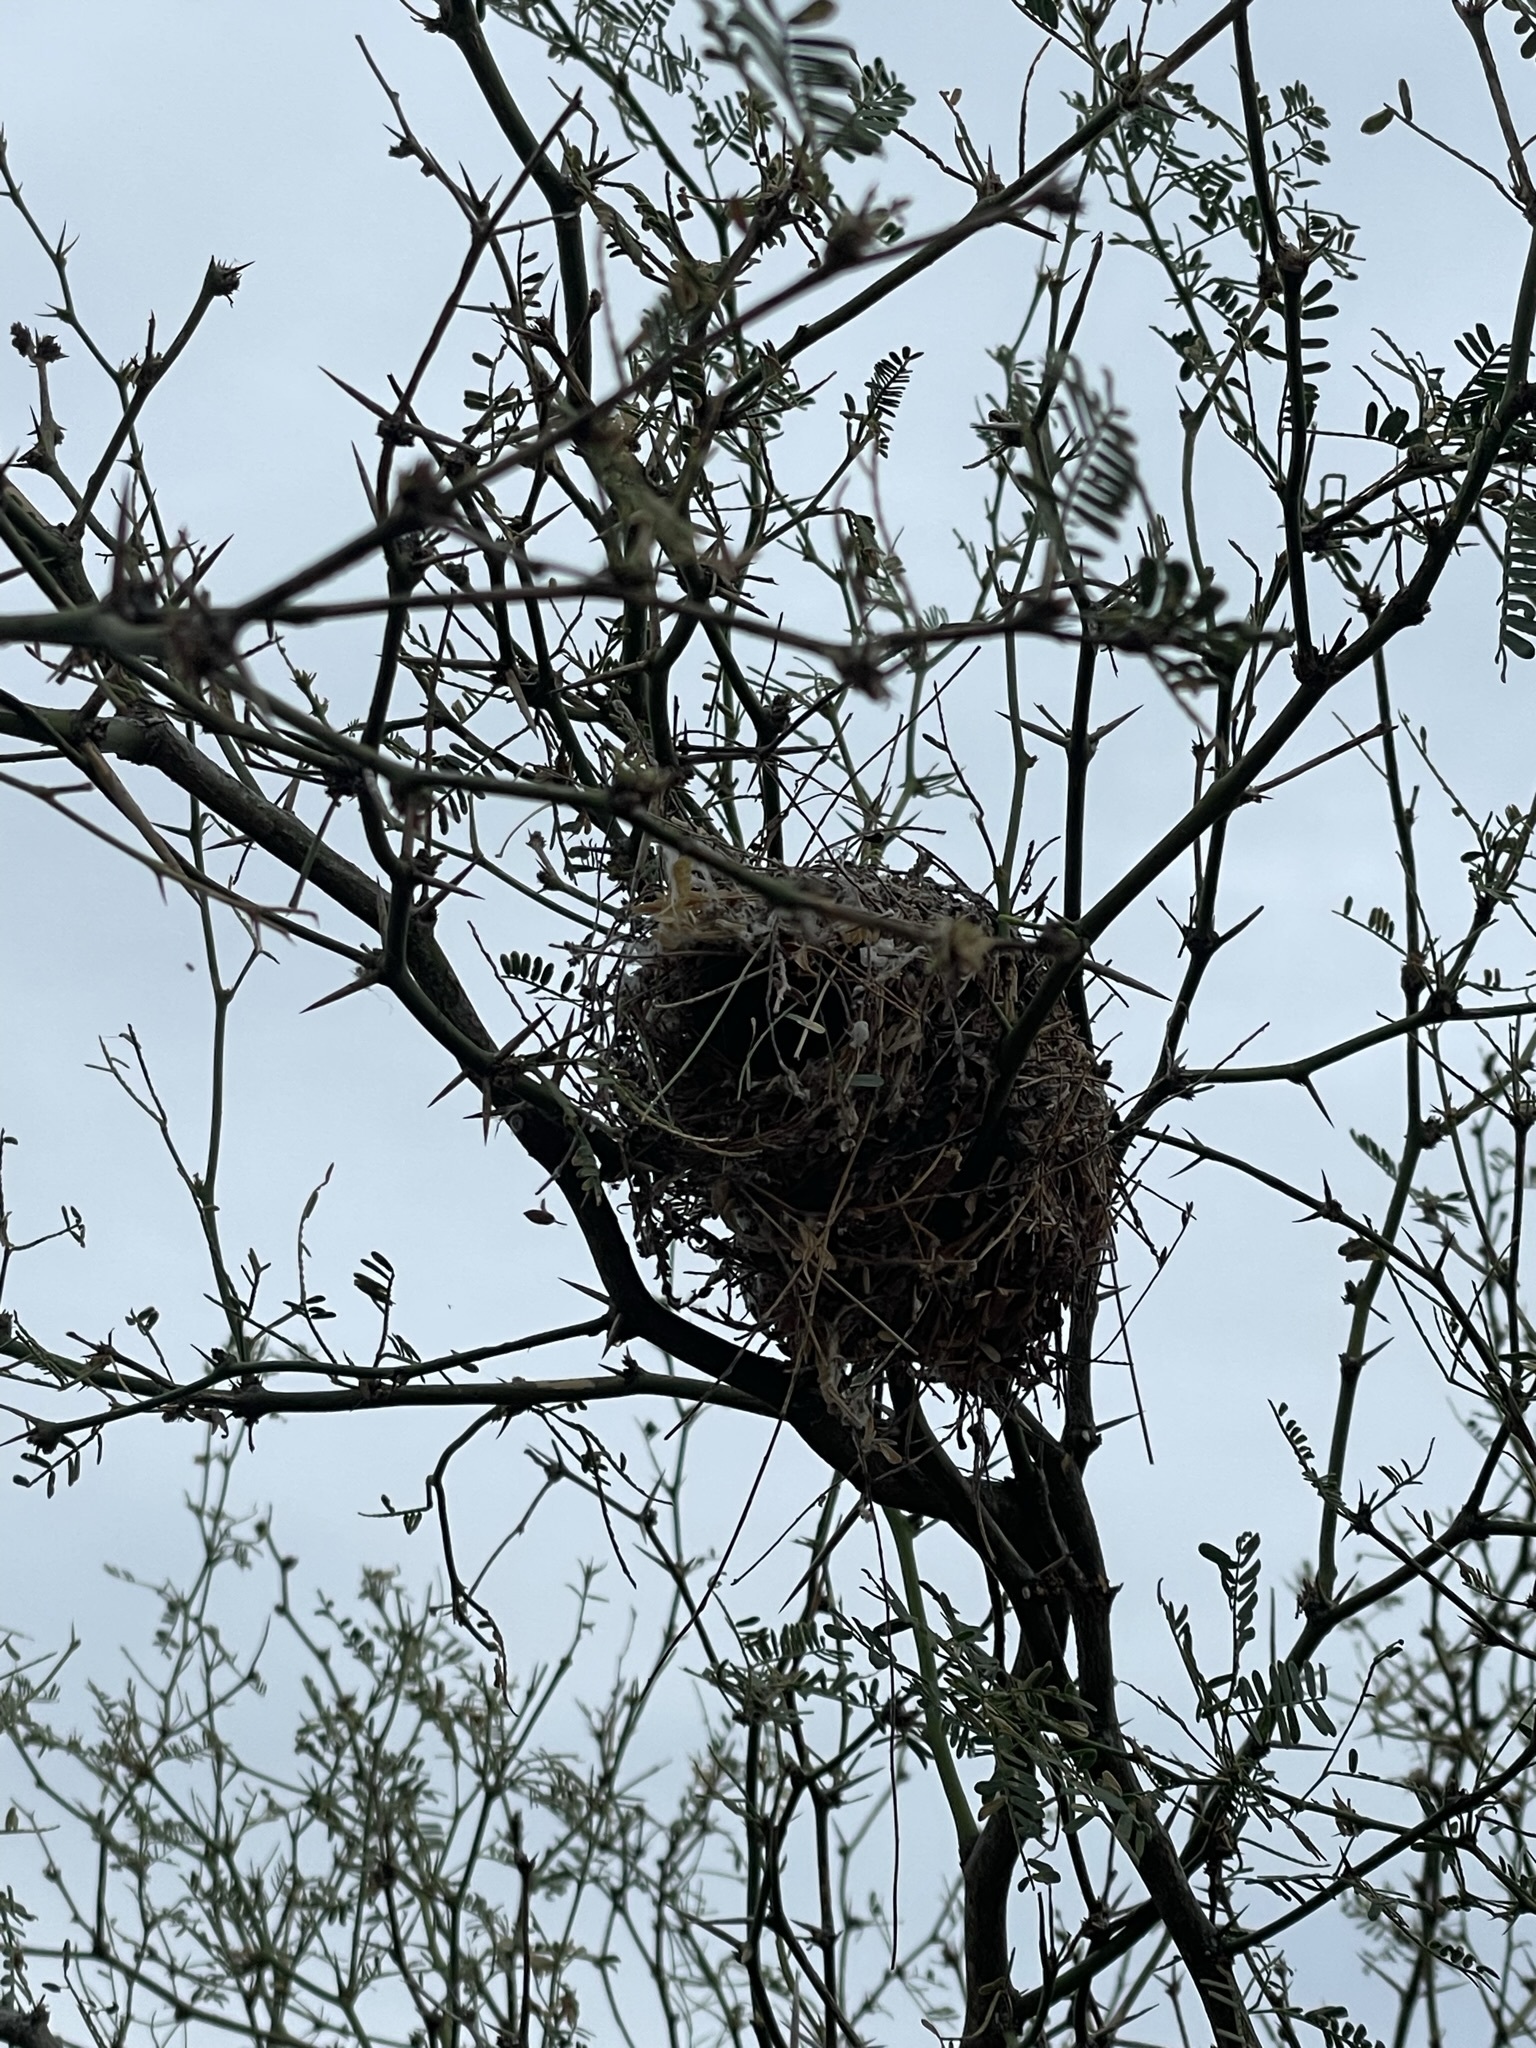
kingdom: Animalia
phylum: Chordata
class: Aves
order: Passeriformes
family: Remizidae
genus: Auriparus
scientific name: Auriparus flaviceps
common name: Verdin
